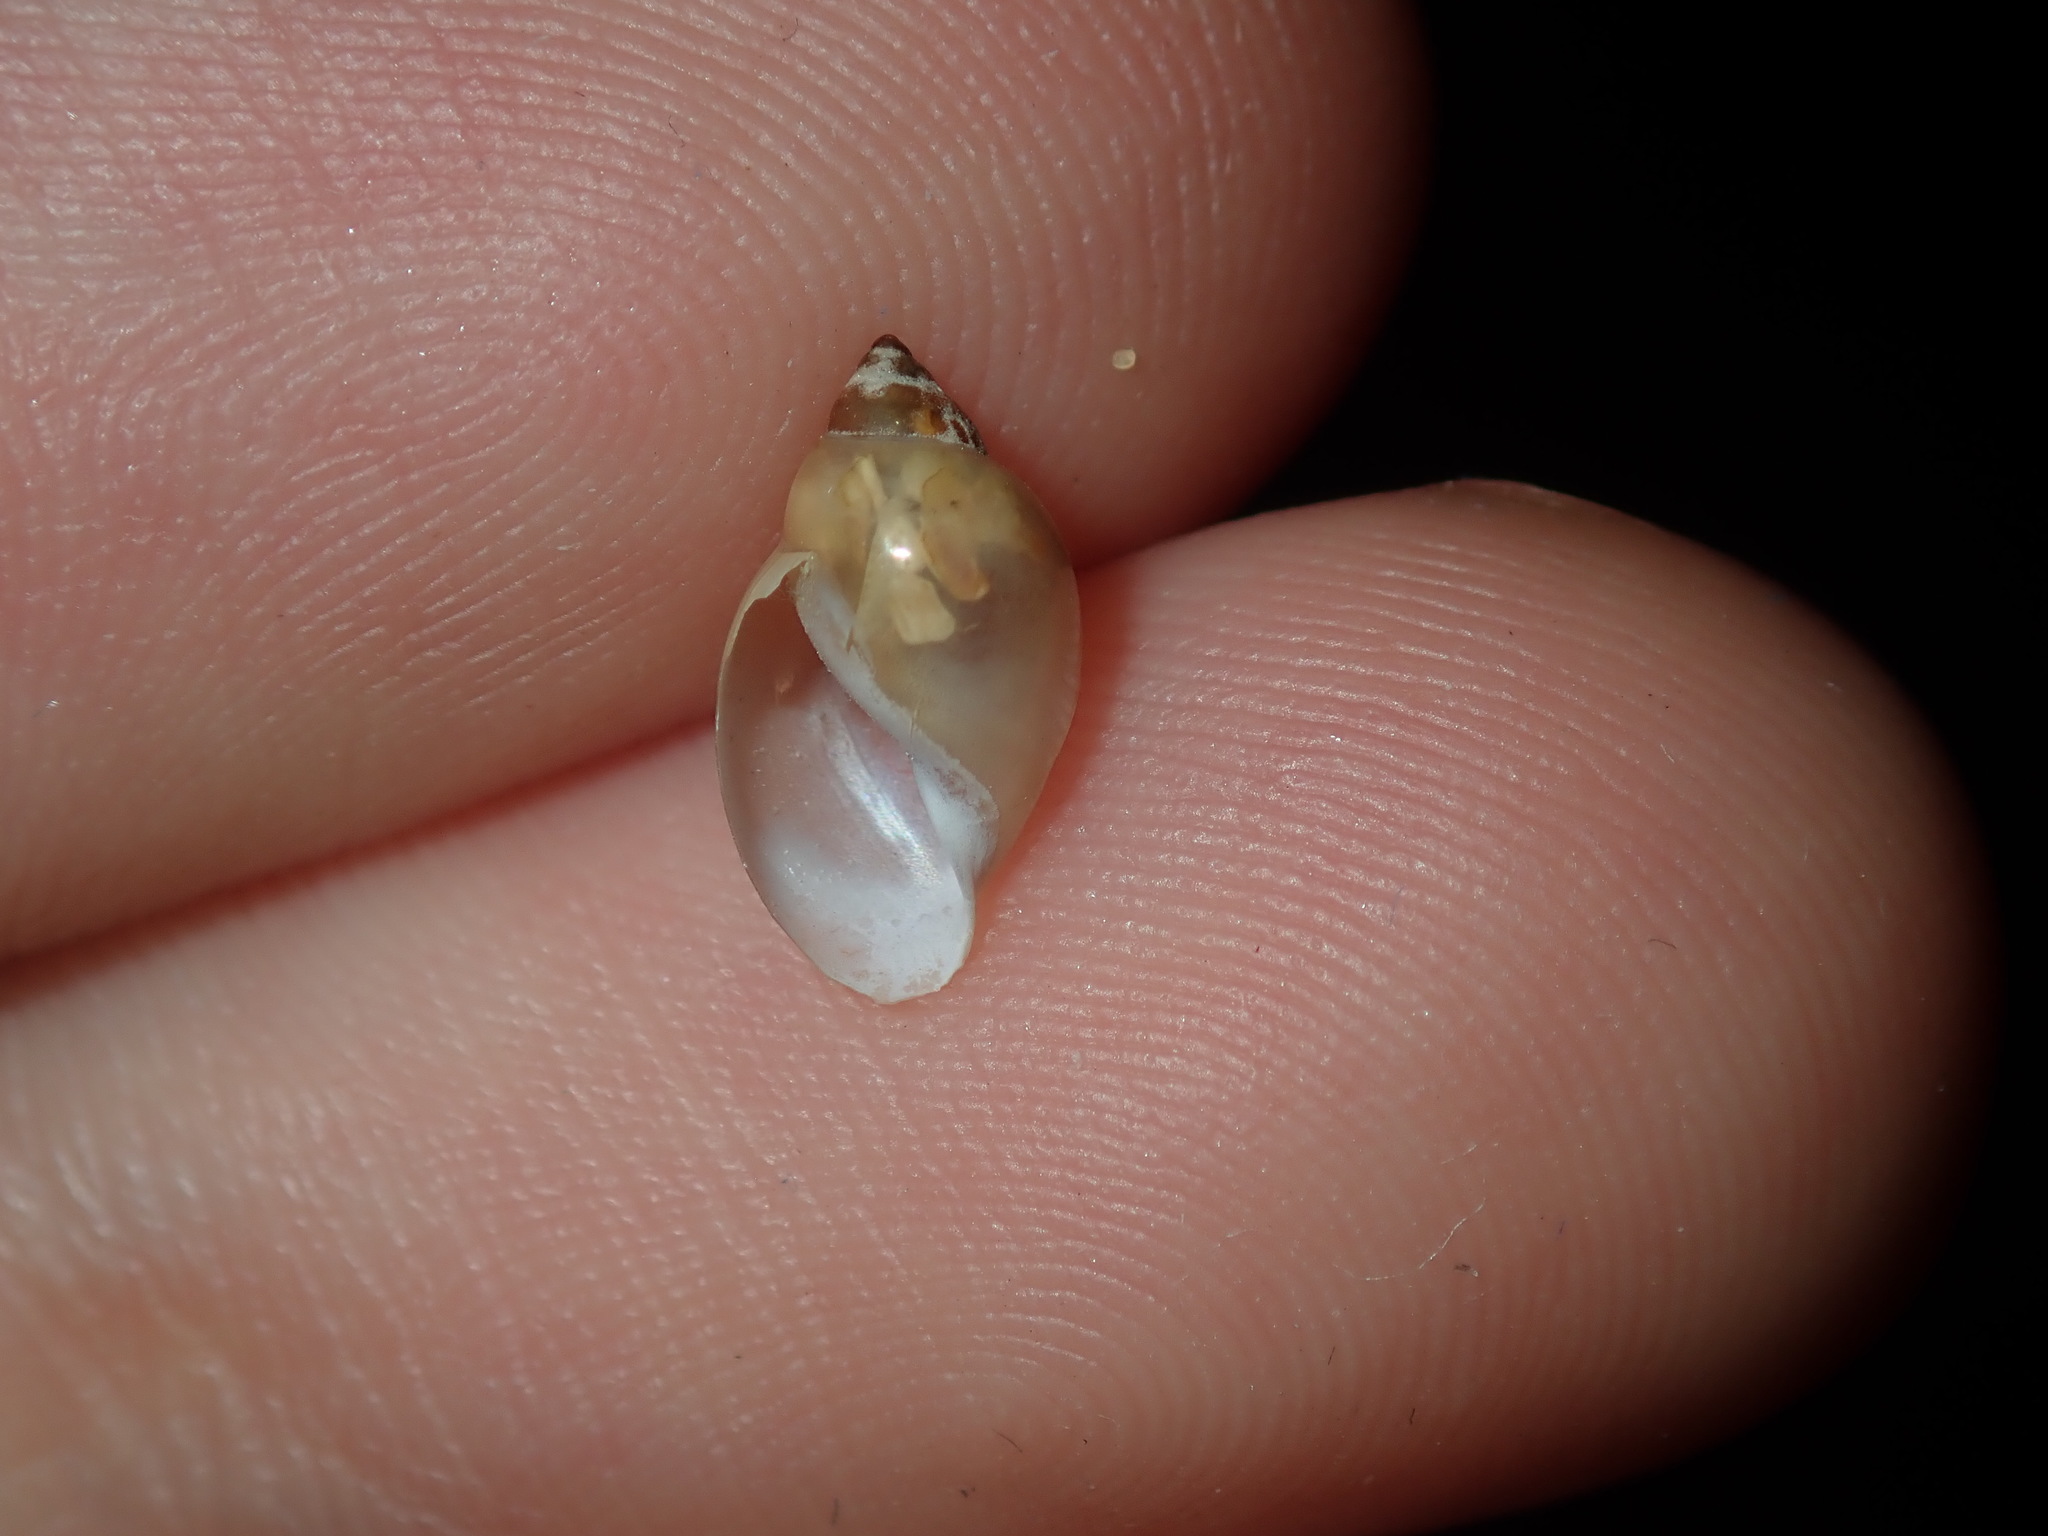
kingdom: Animalia
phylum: Mollusca
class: Gastropoda
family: Physidae
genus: Physella
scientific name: Physella acuta
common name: European physa
